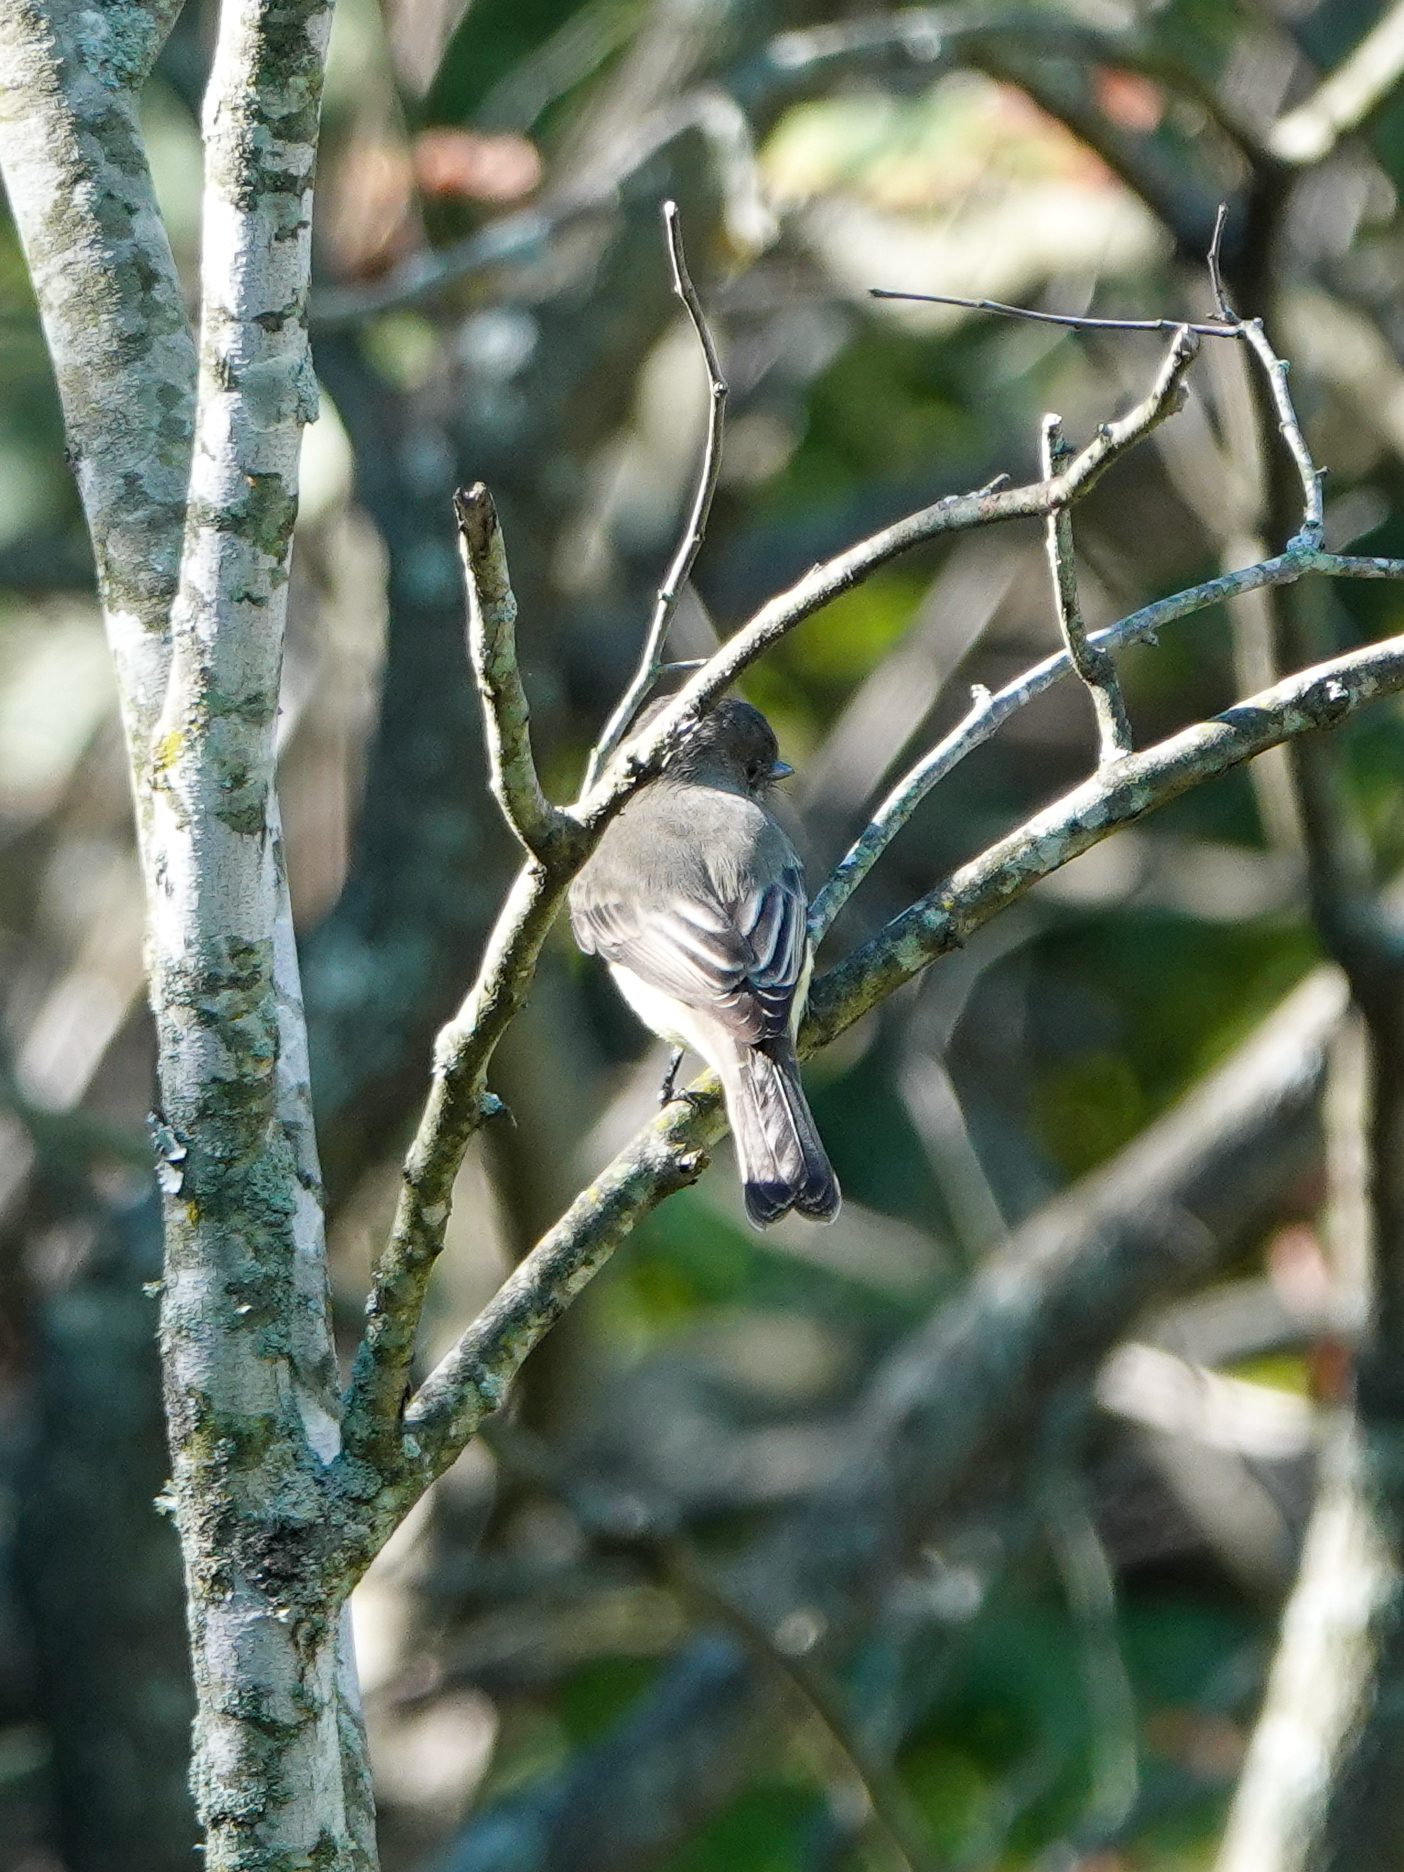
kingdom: Animalia
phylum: Chordata
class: Aves
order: Passeriformes
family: Tyrannidae
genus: Sayornis
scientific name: Sayornis phoebe
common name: Eastern phoebe
